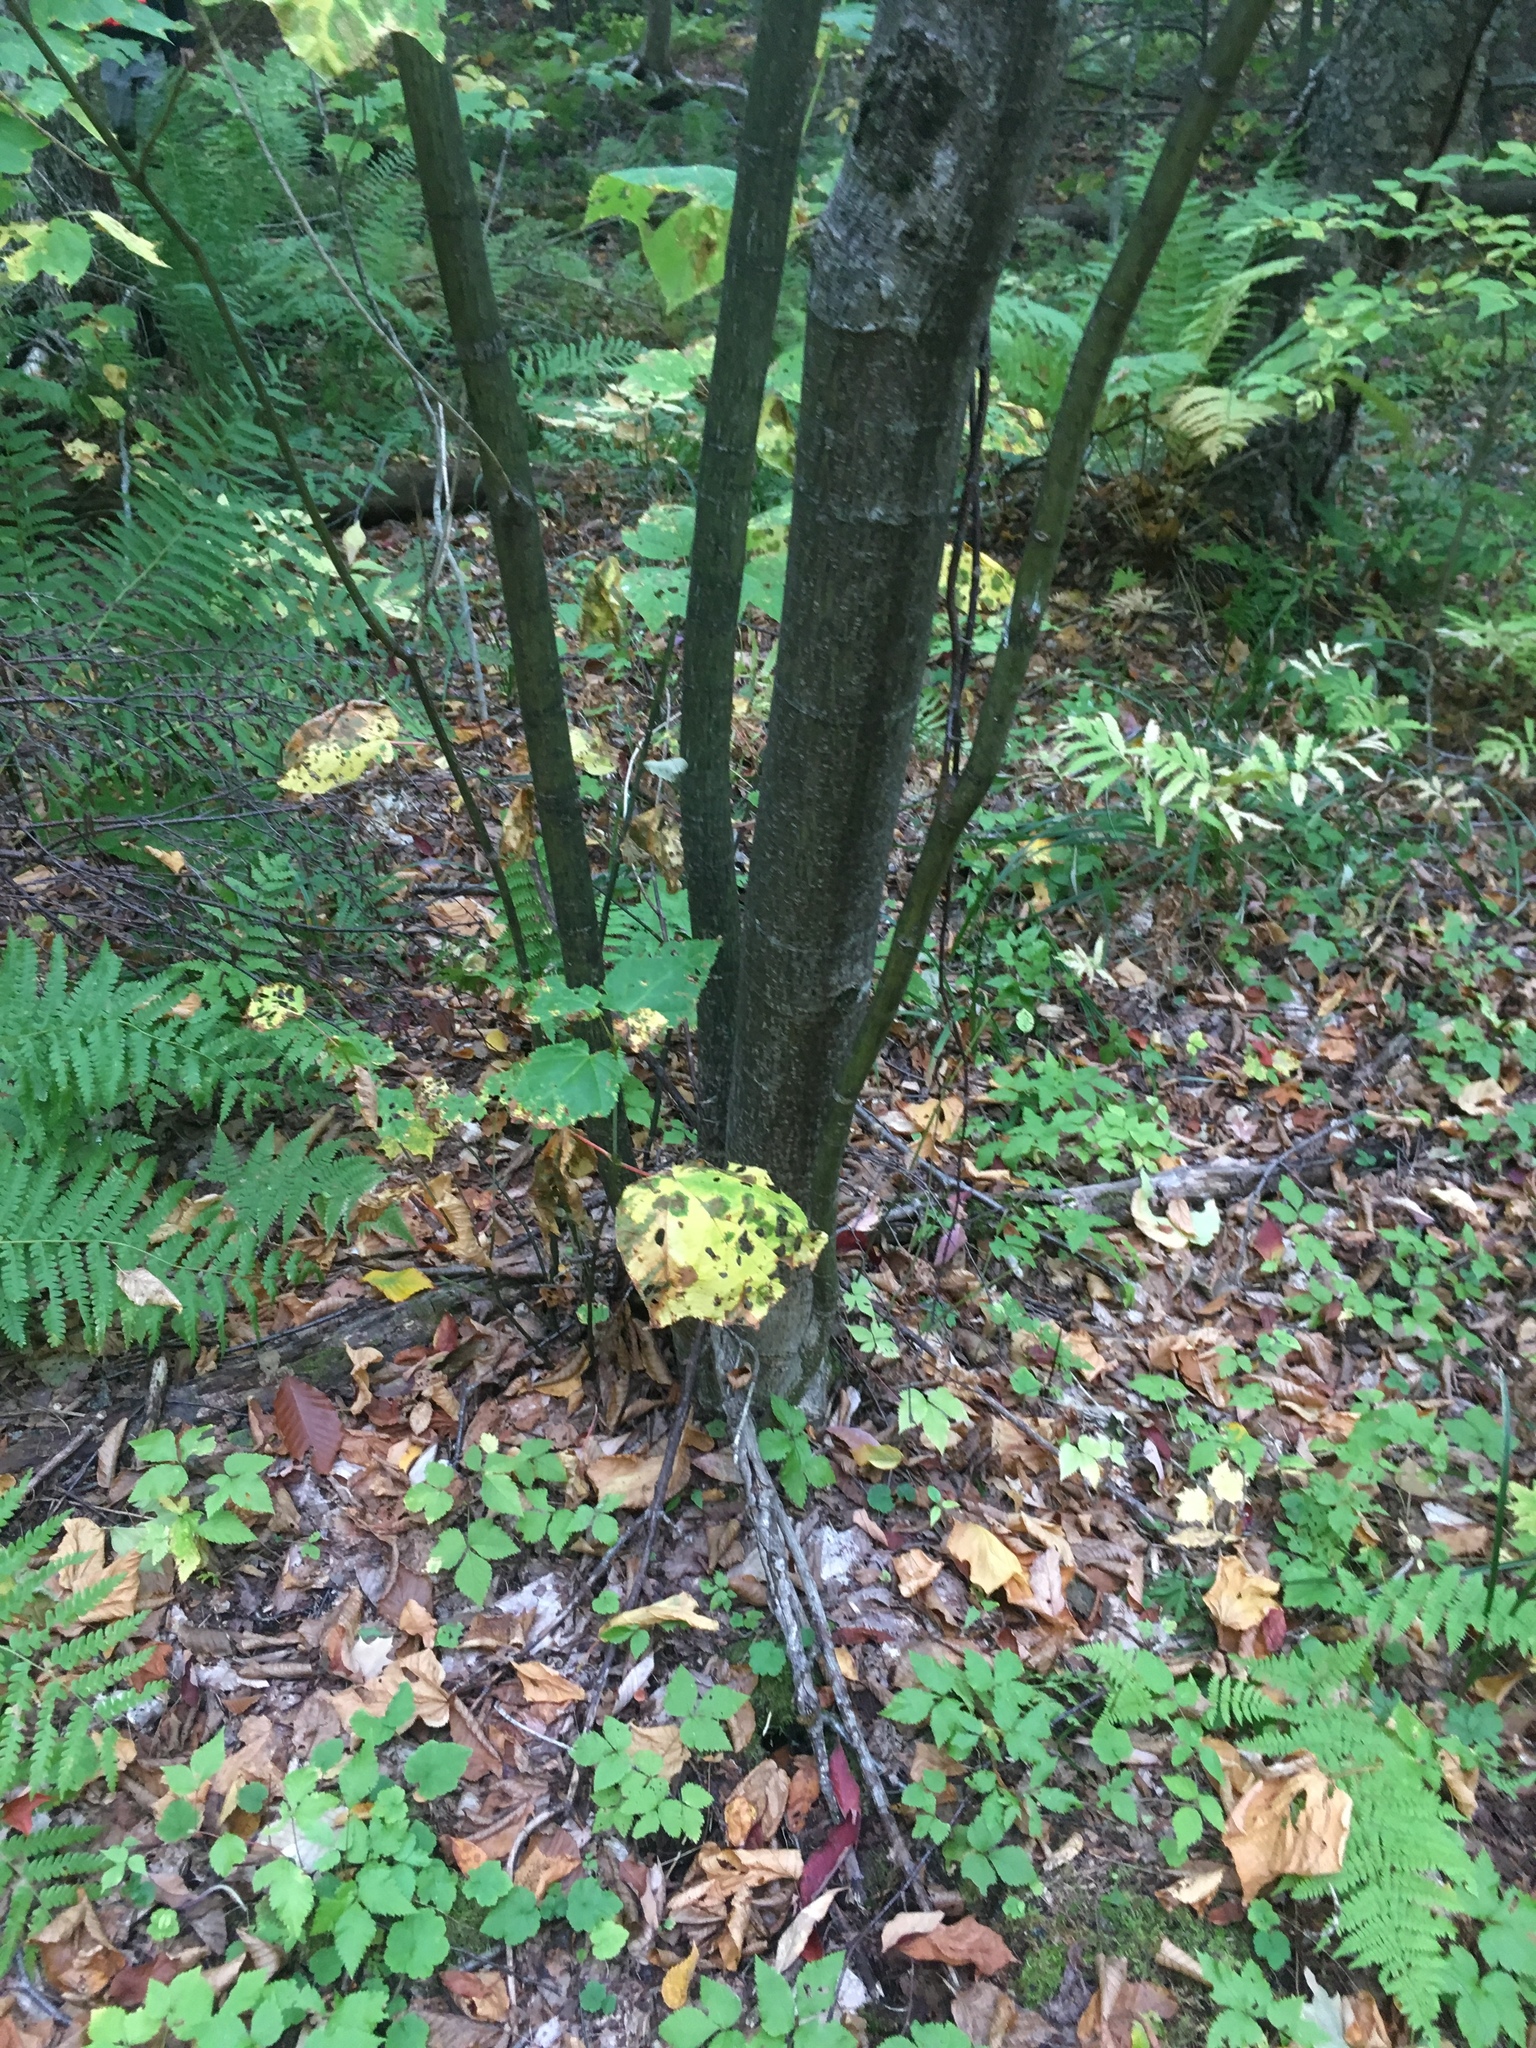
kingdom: Plantae
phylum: Tracheophyta
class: Magnoliopsida
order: Sapindales
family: Sapindaceae
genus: Acer
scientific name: Acer pensylvanicum
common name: Moosewood
